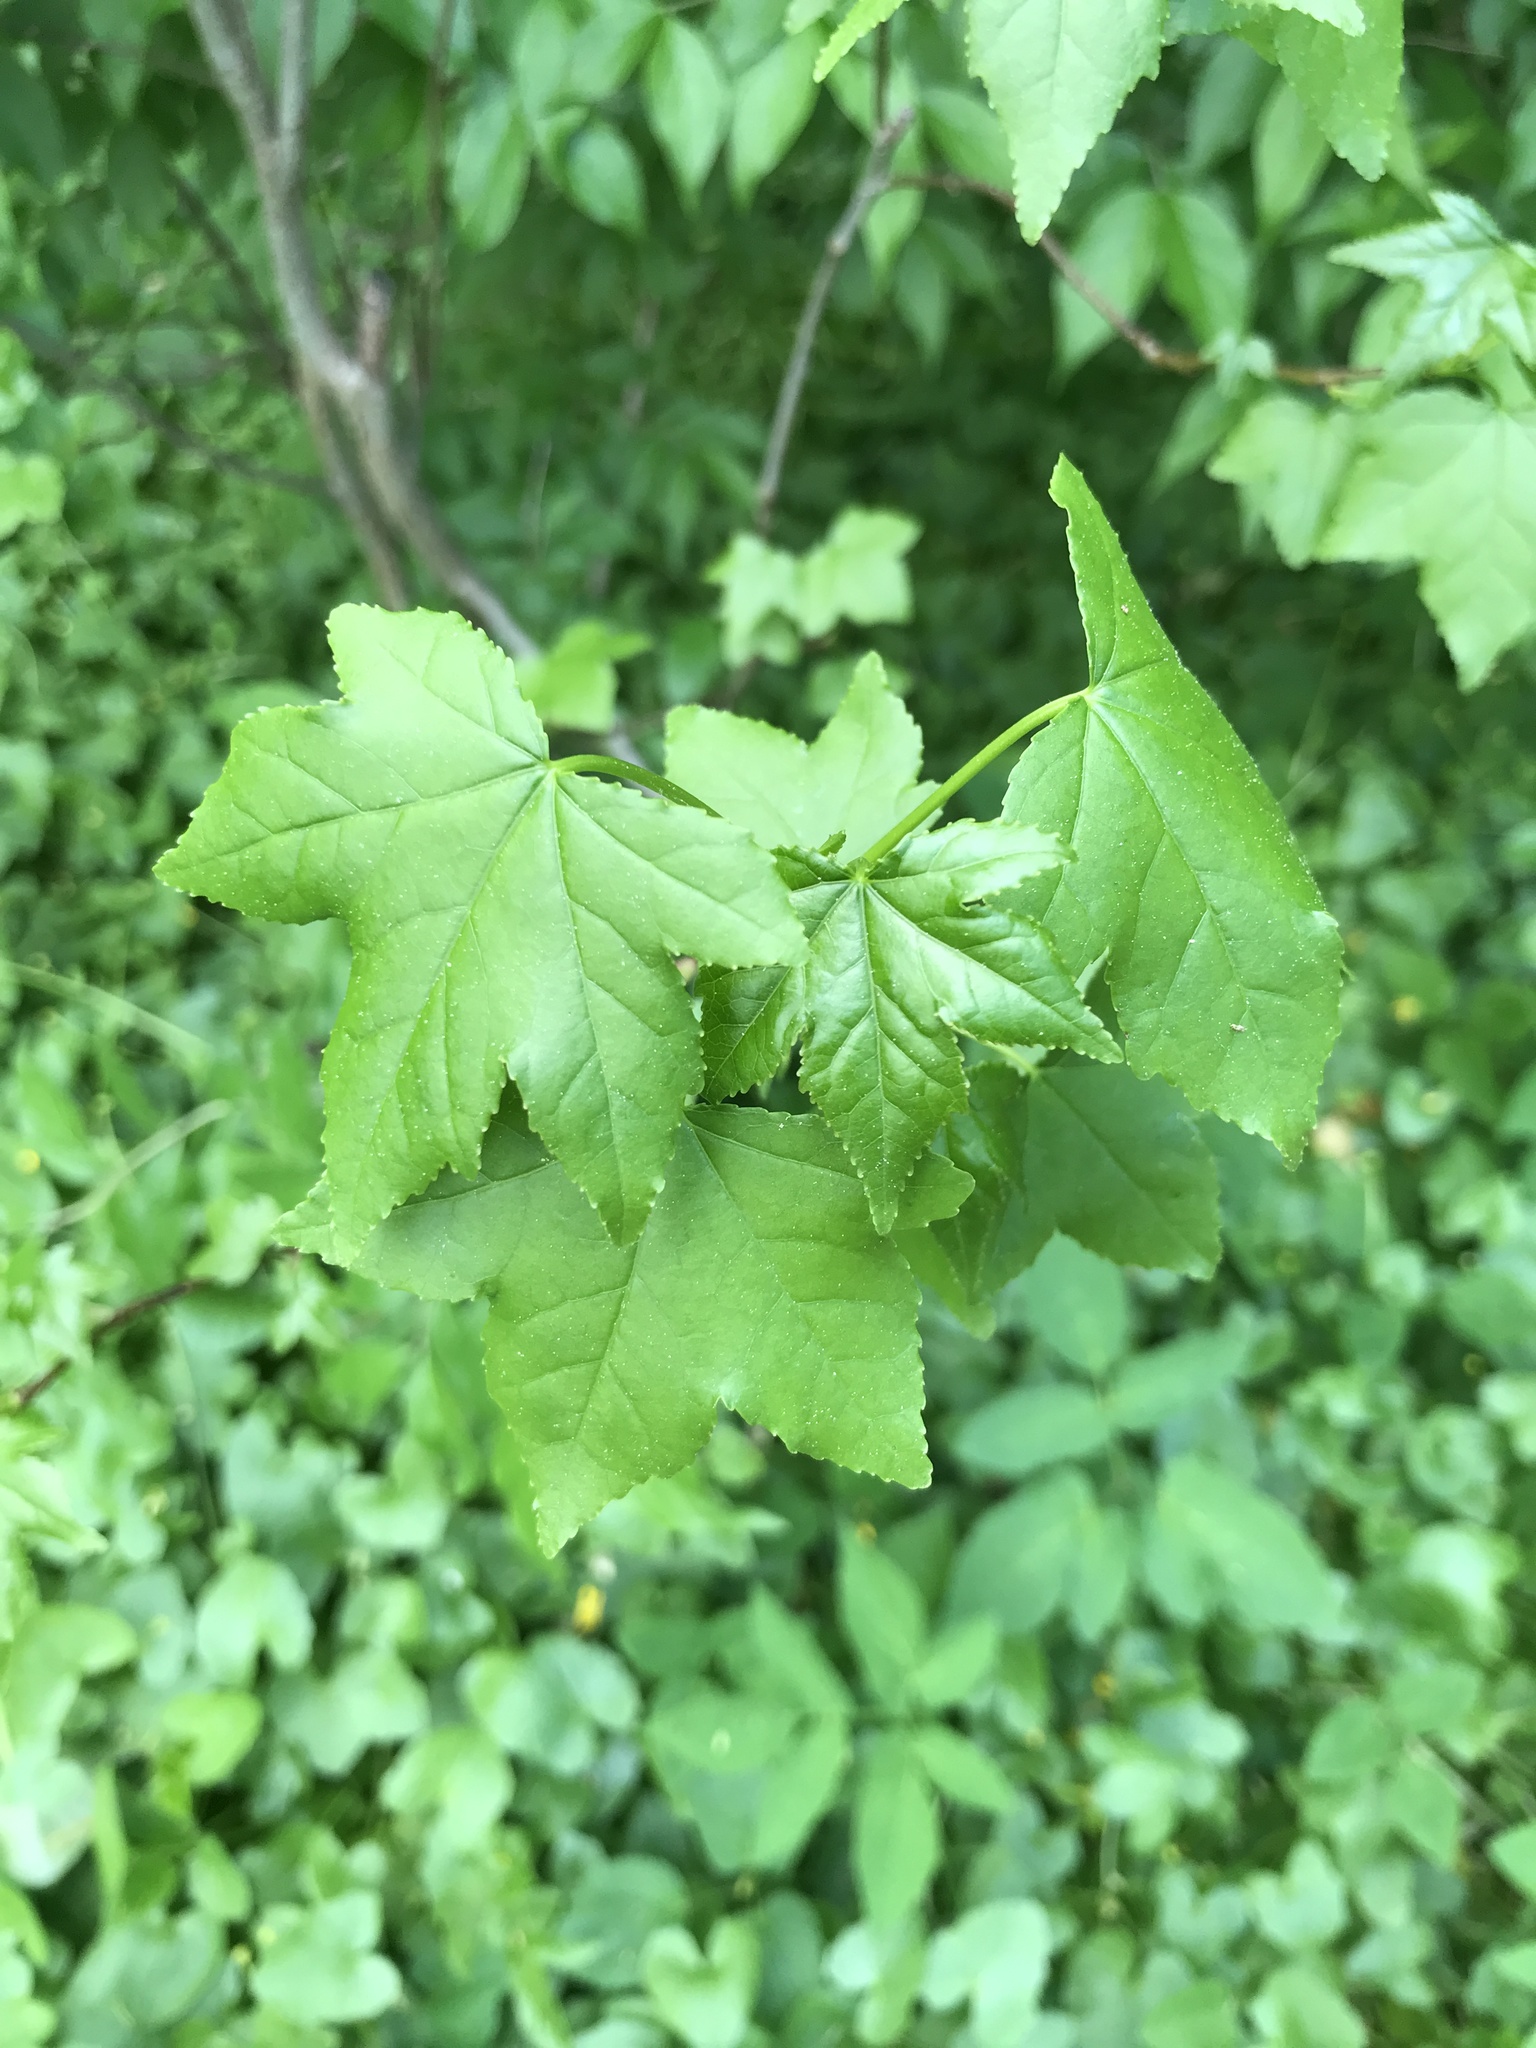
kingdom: Plantae
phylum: Tracheophyta
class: Magnoliopsida
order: Saxifragales
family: Altingiaceae
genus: Liquidambar
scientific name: Liquidambar styraciflua
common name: Sweet gum
